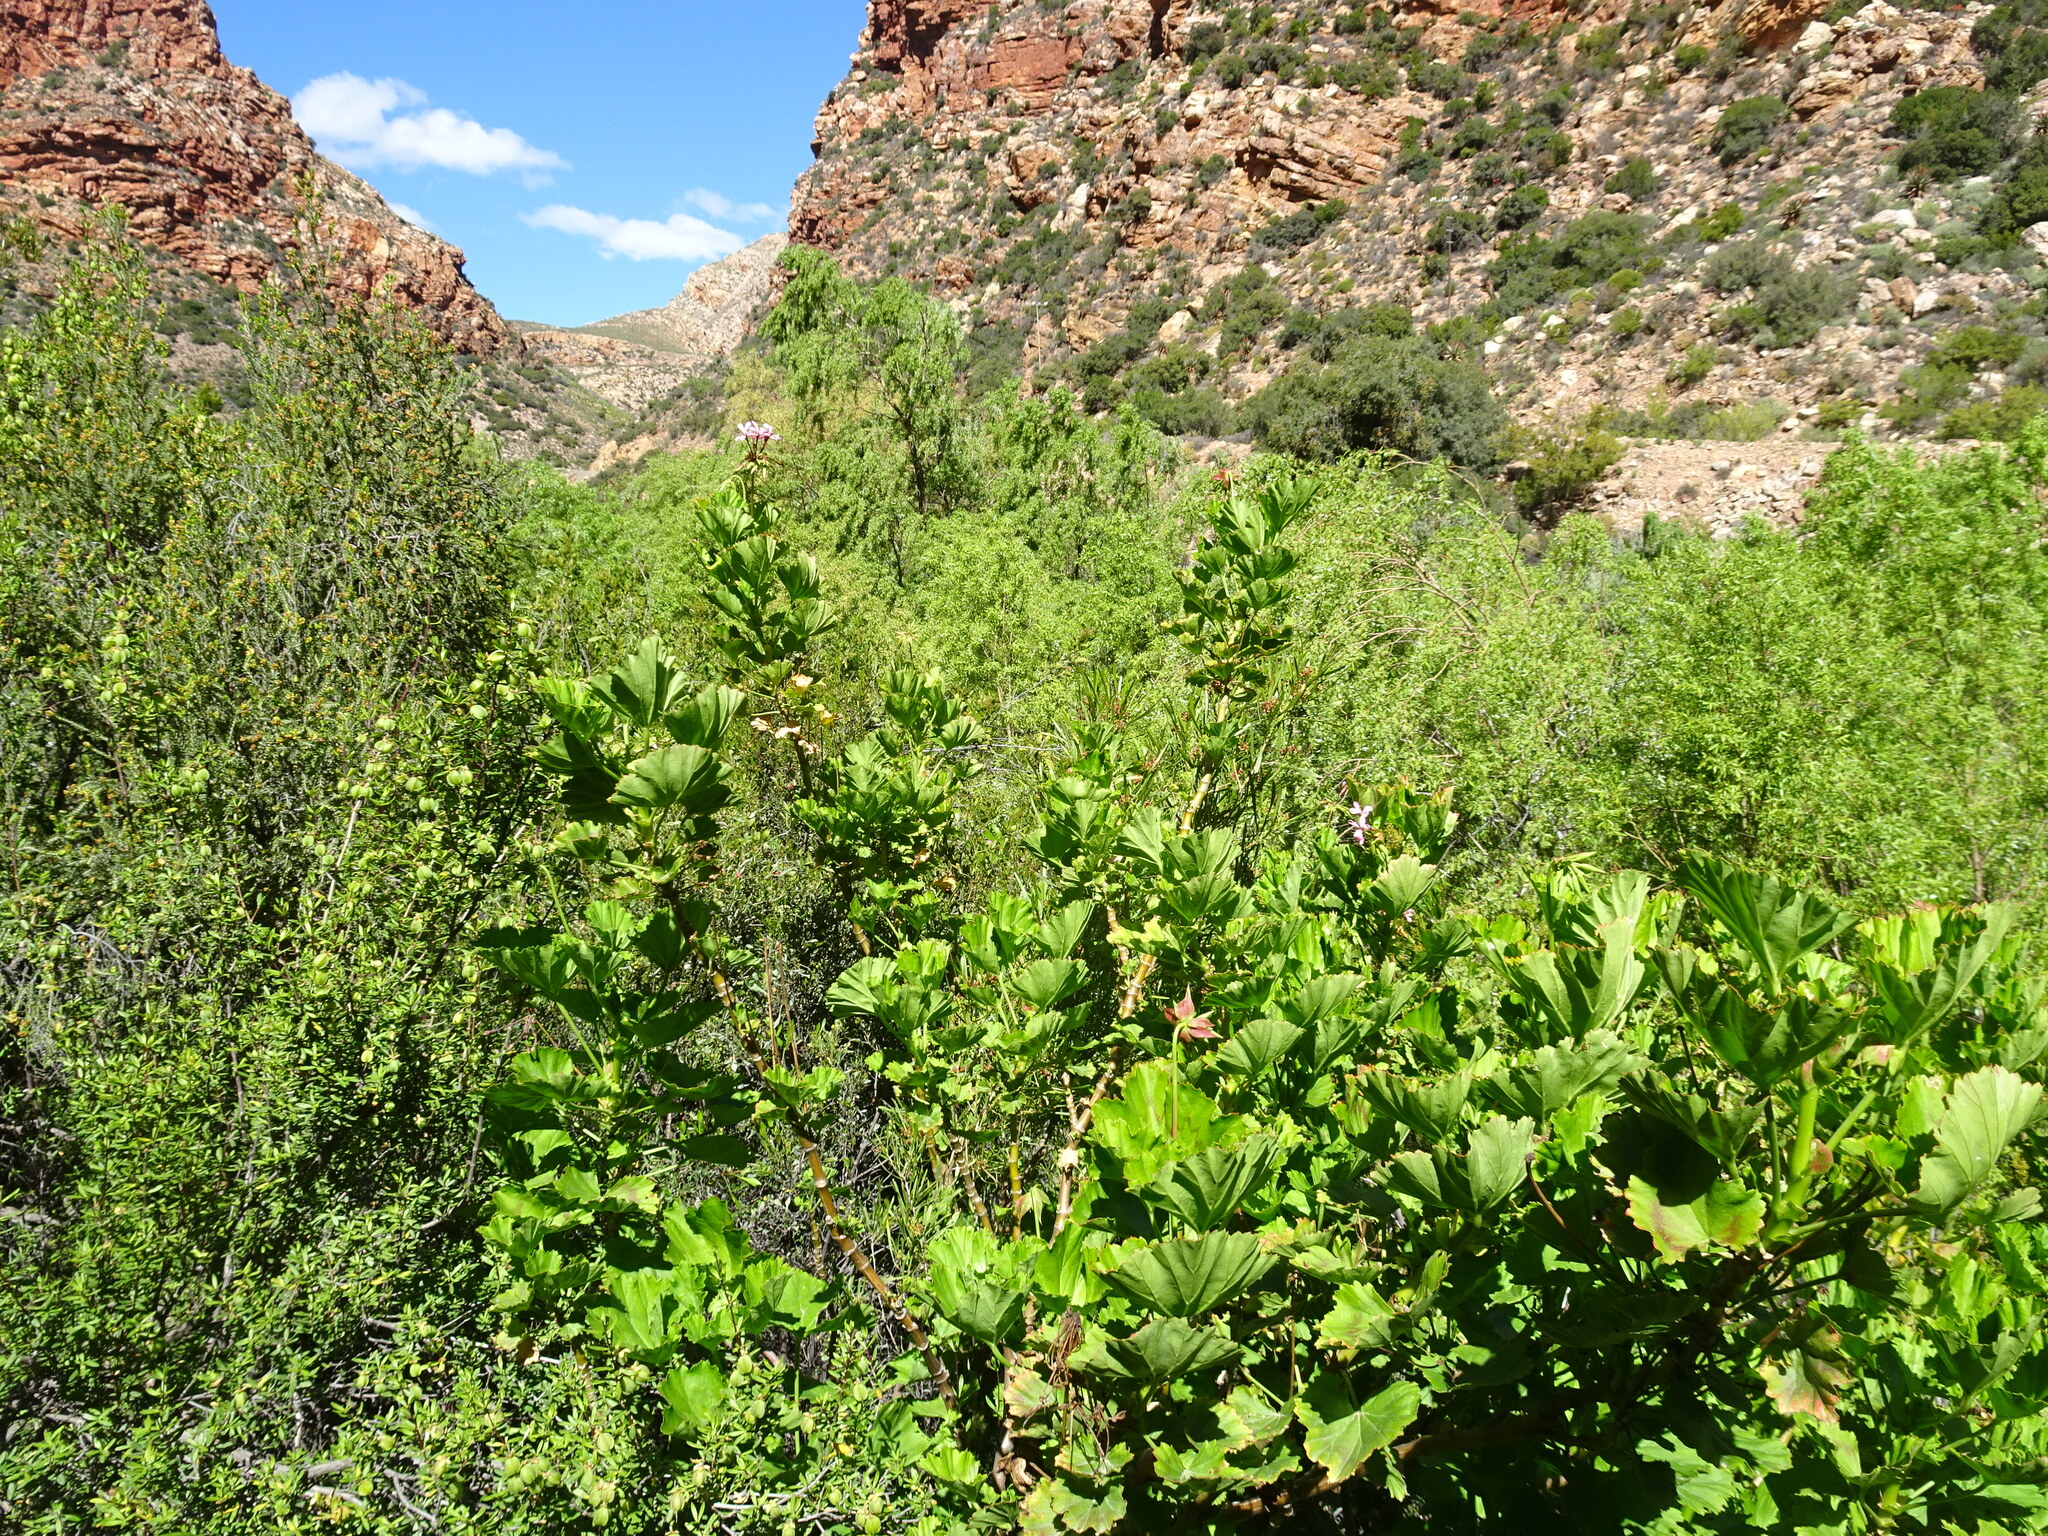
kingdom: Plantae
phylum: Tracheophyta
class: Magnoliopsida
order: Geraniales
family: Geraniaceae
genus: Pelargonium
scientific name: Pelargonium zonale
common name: Horseshoe geranium
